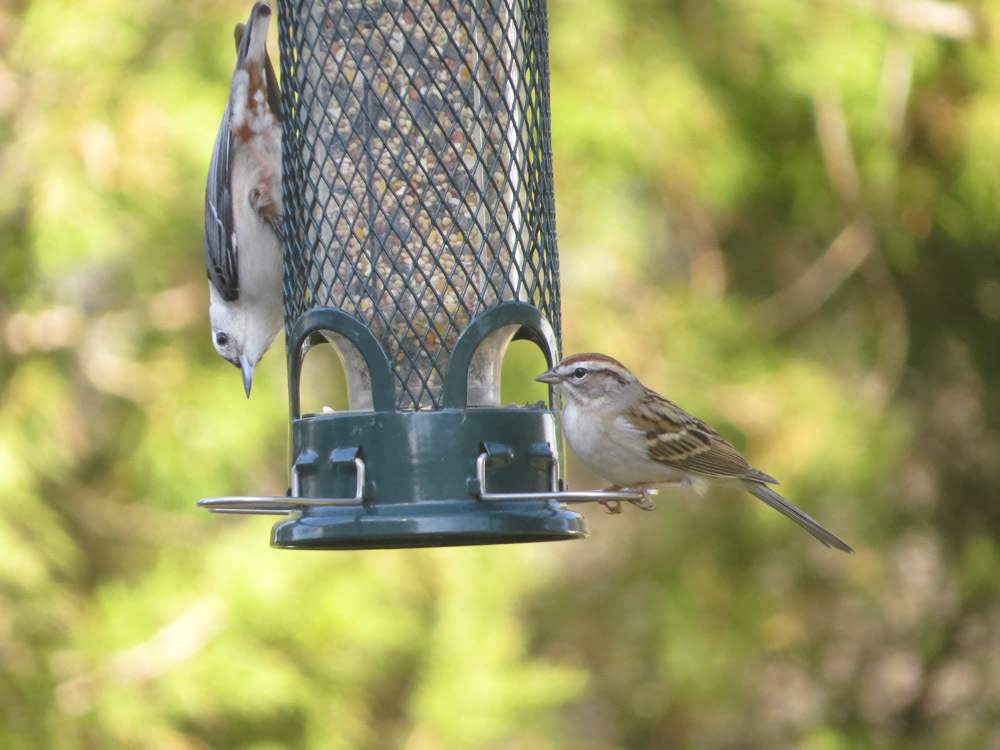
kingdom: Animalia
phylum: Chordata
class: Aves
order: Passeriformes
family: Passerellidae
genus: Spizella
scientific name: Spizella passerina
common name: Chipping sparrow
